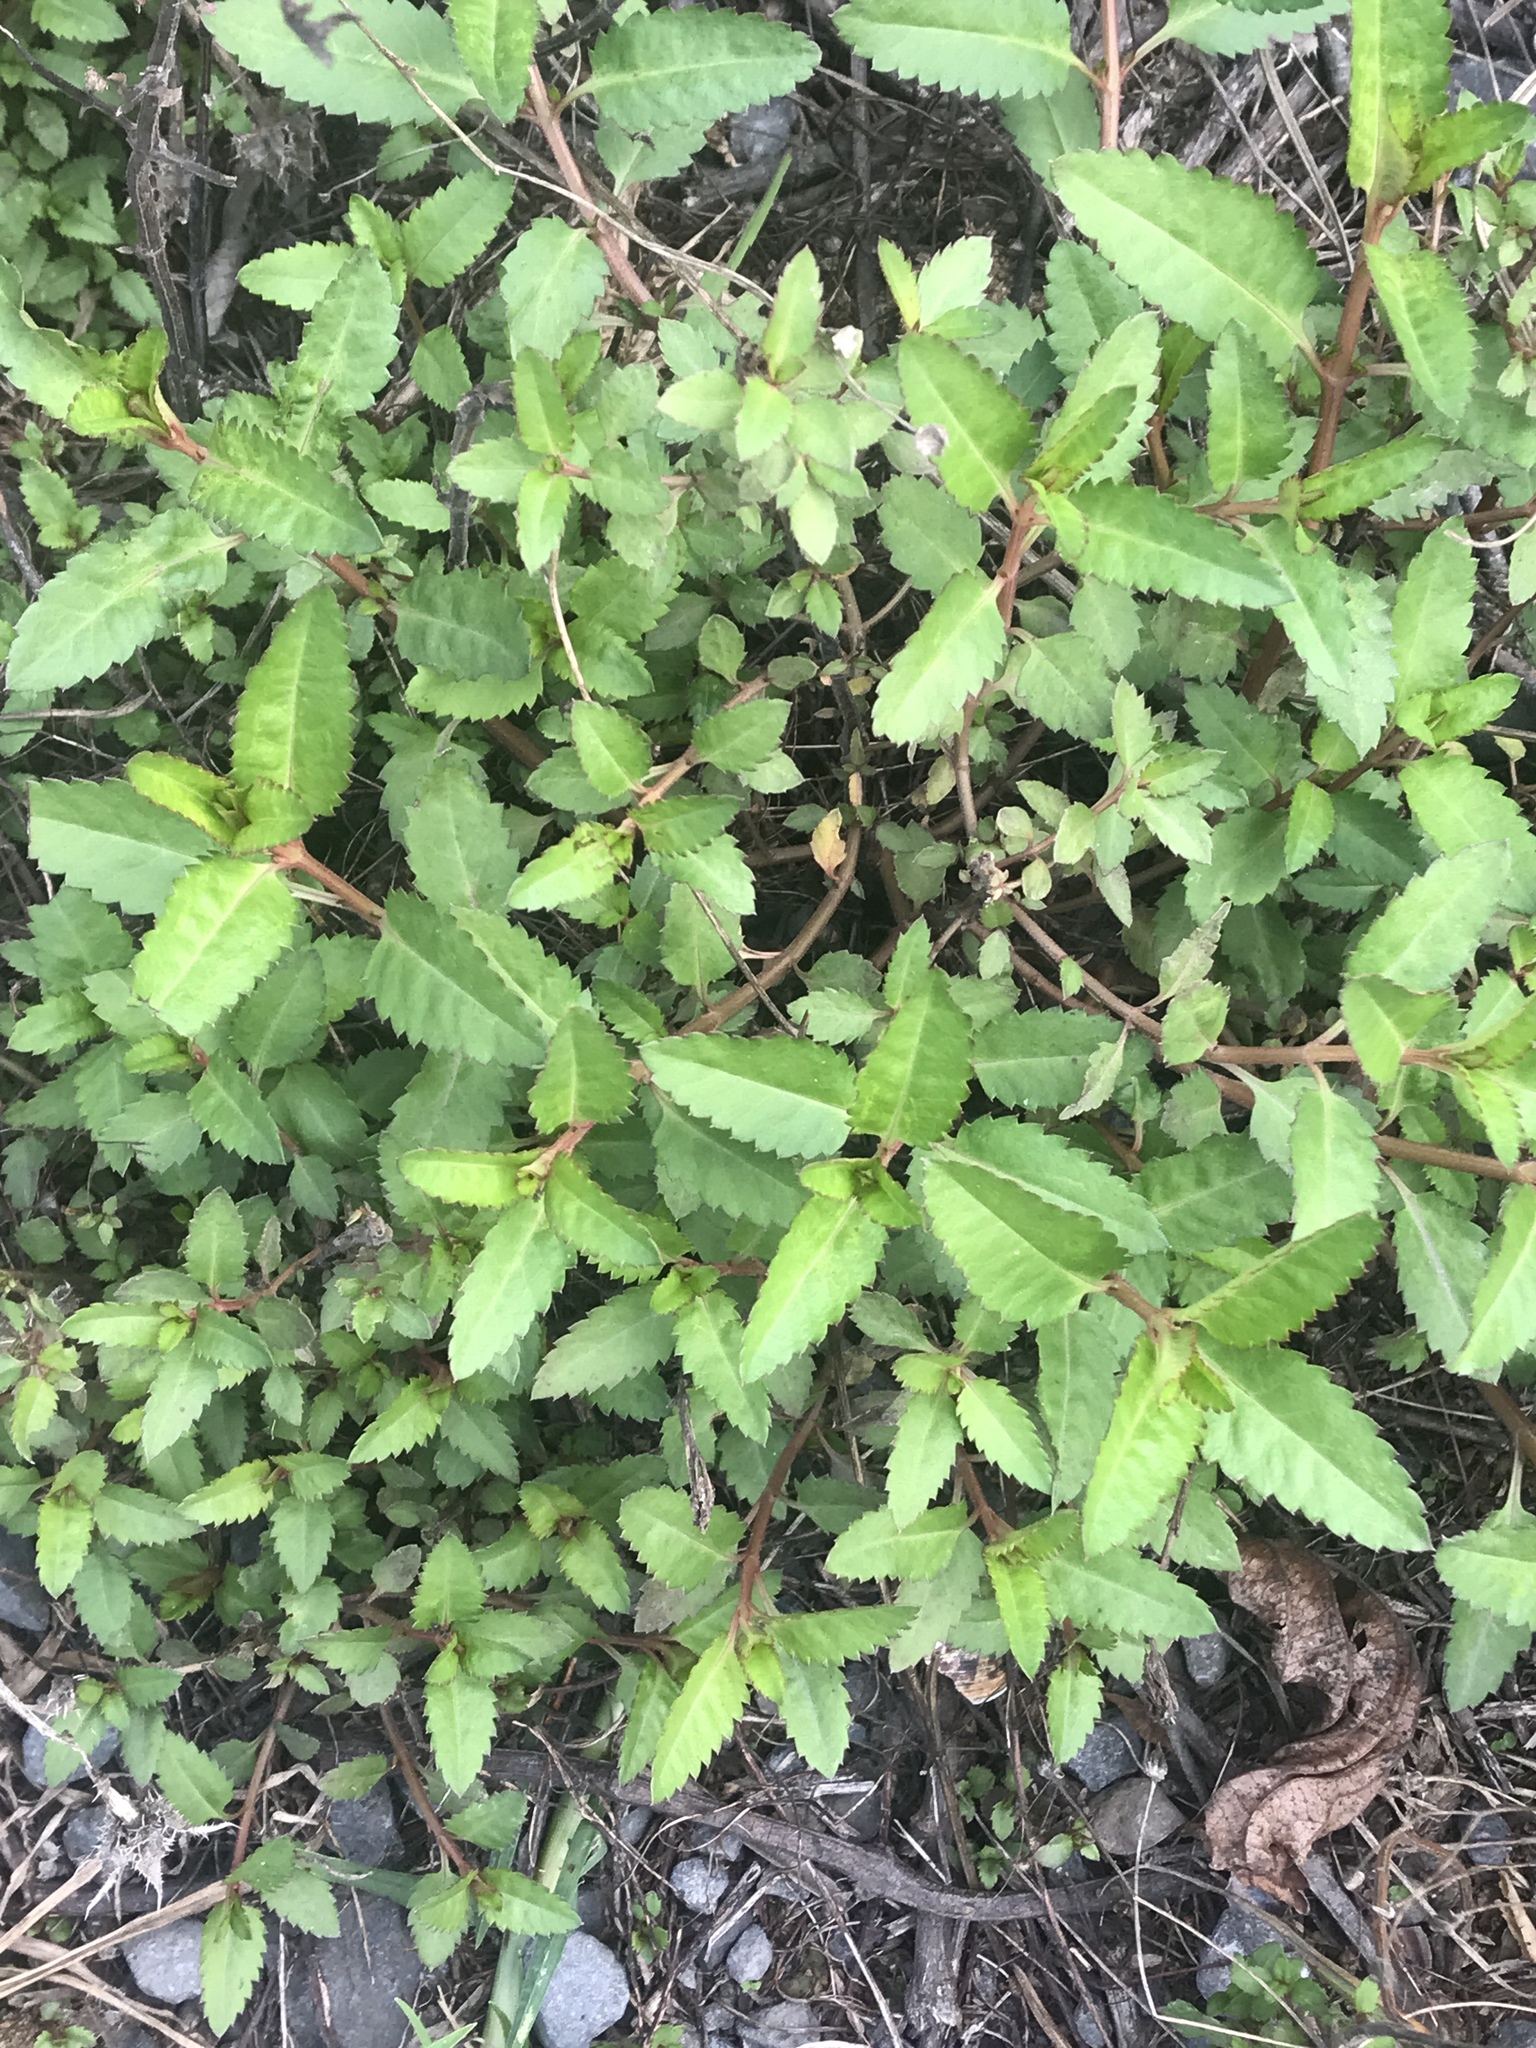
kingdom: Plantae
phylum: Tracheophyta
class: Magnoliopsida
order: Saxifragales
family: Haloragaceae
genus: Haloragis
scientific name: Haloragis erecta
